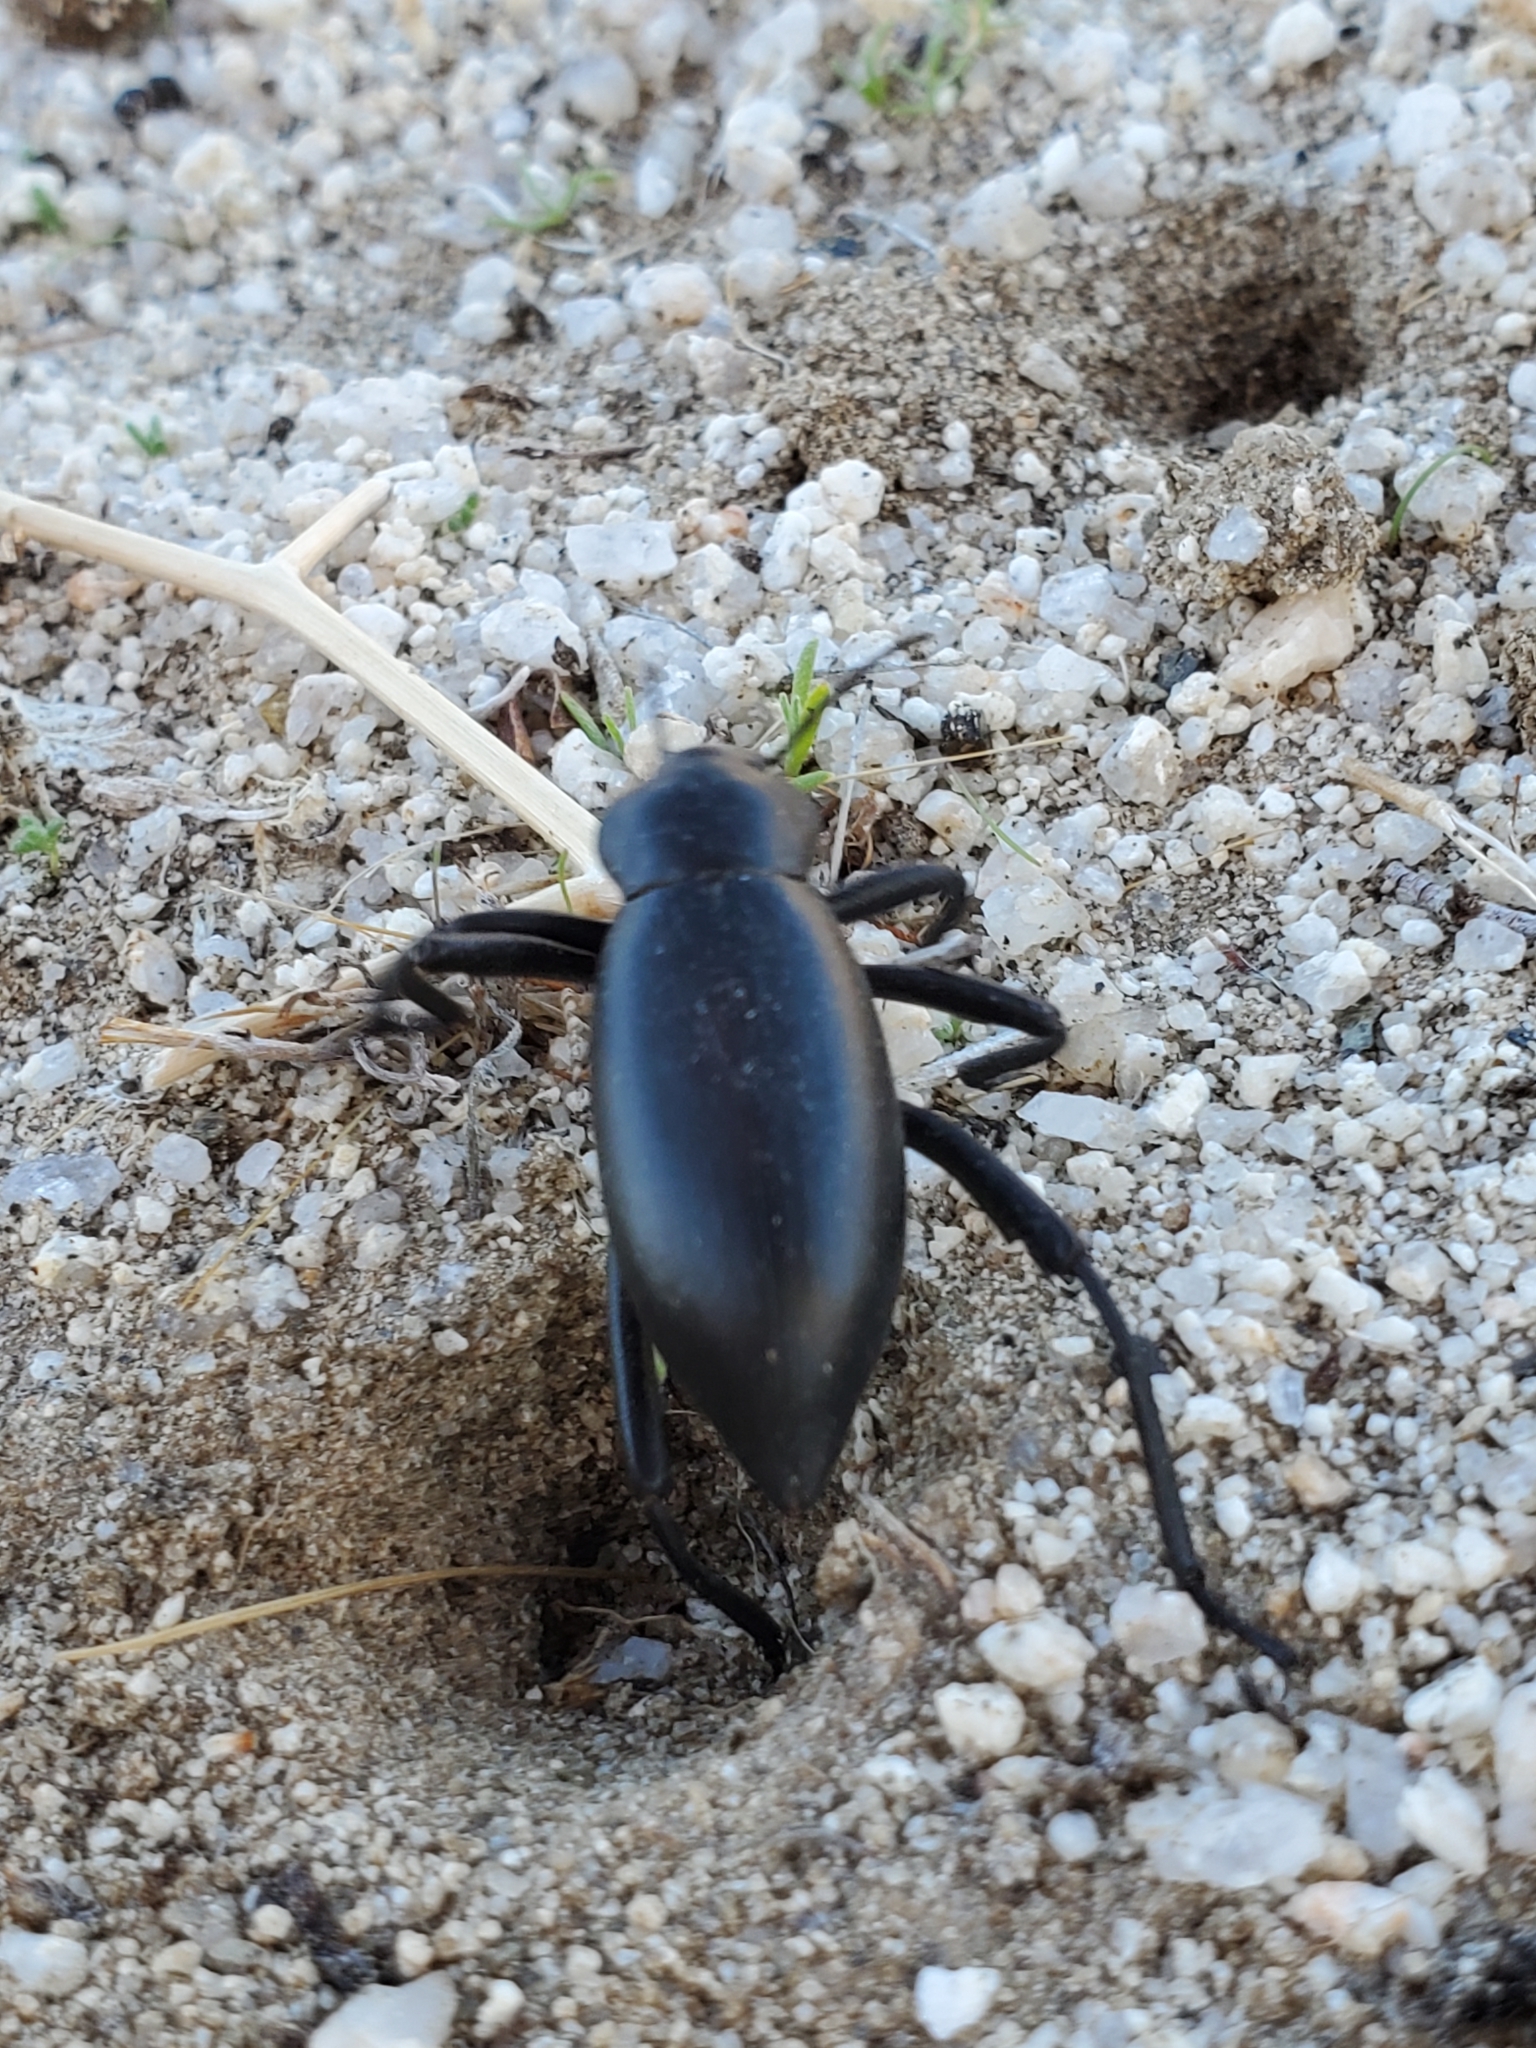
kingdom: Animalia
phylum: Arthropoda
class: Insecta
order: Coleoptera
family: Tenebrionidae
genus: Eleodes
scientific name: Eleodes armata
